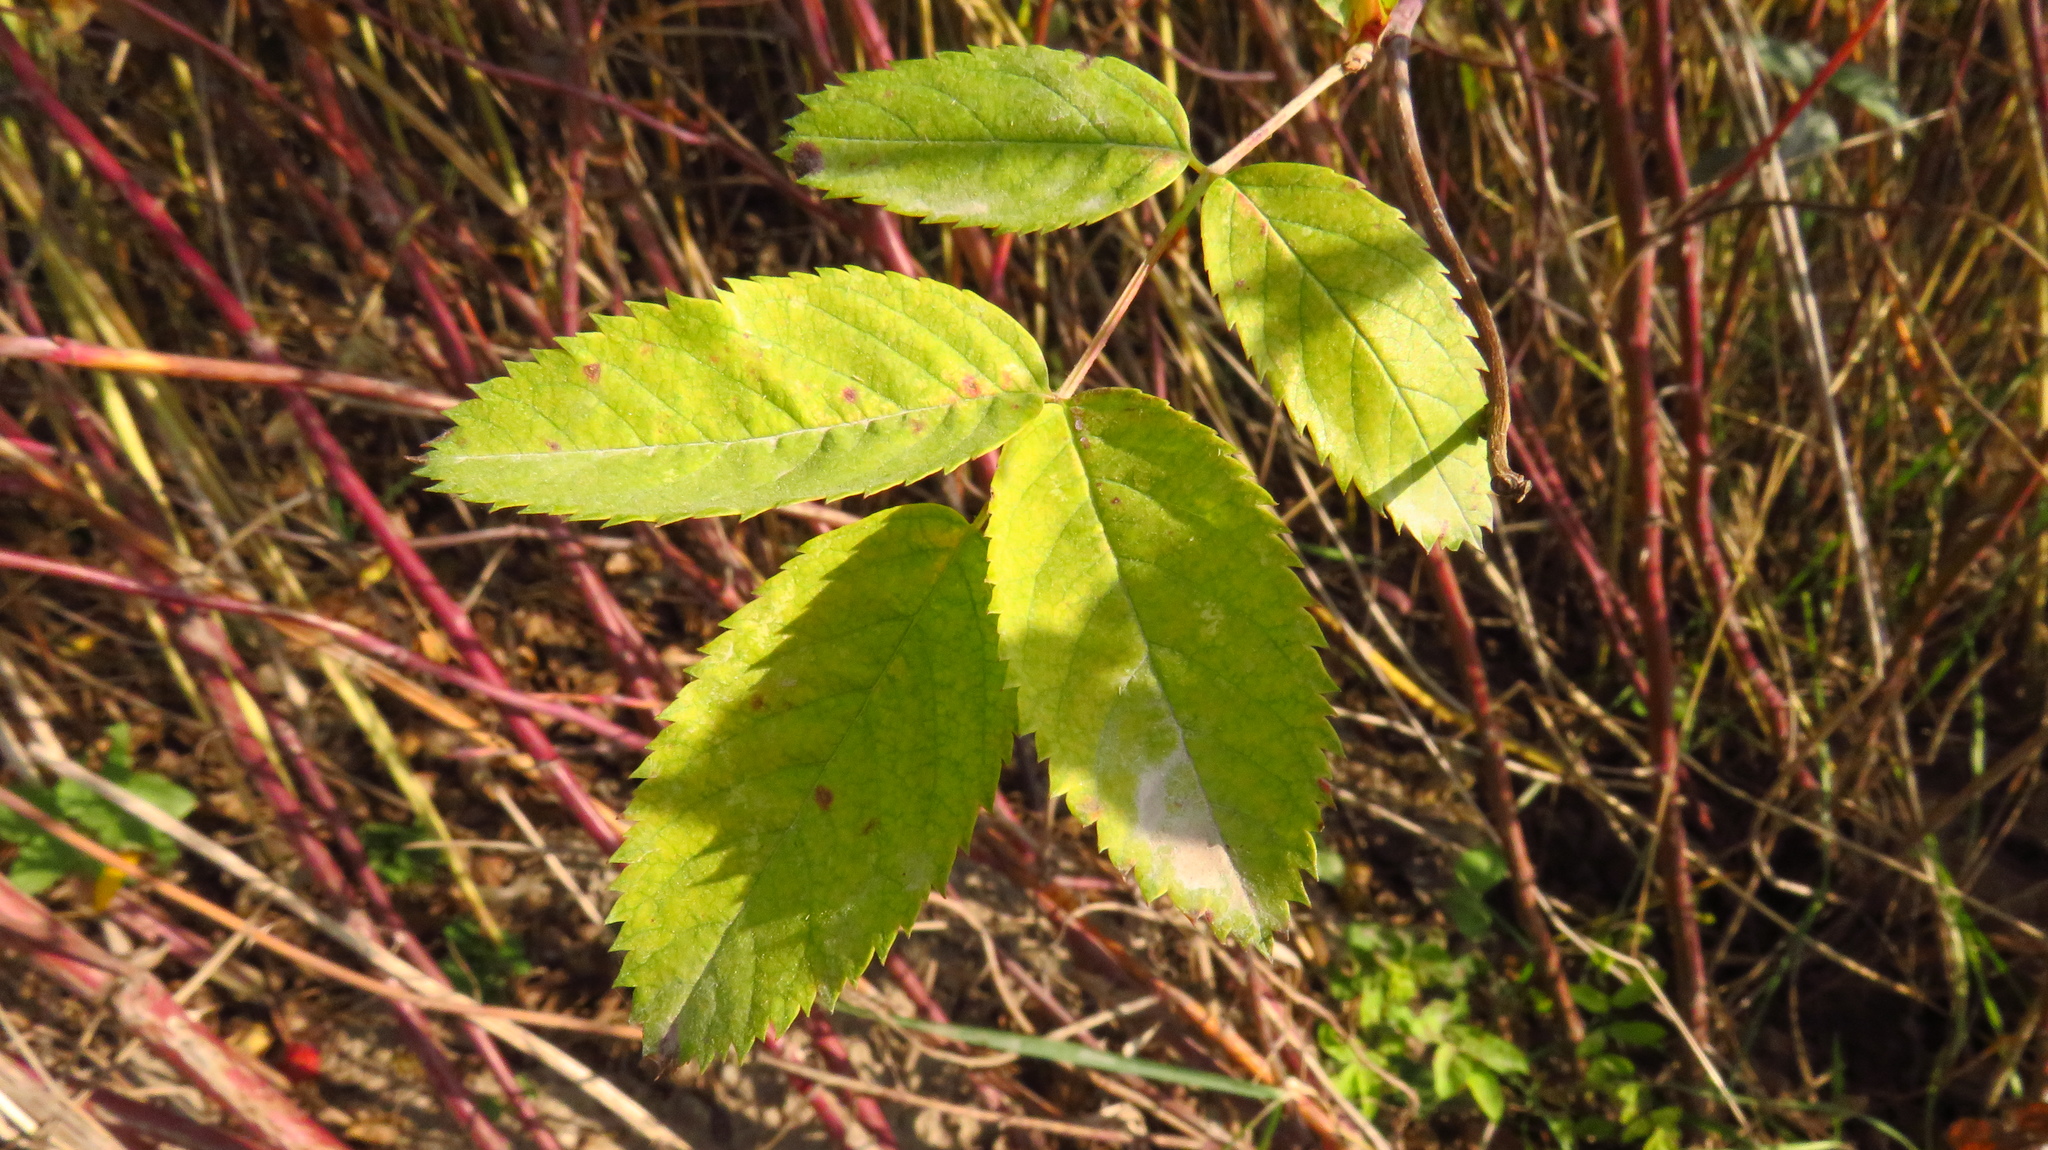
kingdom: Plantae
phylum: Tracheophyta
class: Magnoliopsida
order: Rosales
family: Rosaceae
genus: Rosa
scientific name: Rosa majalis
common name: Cinnamon rose
